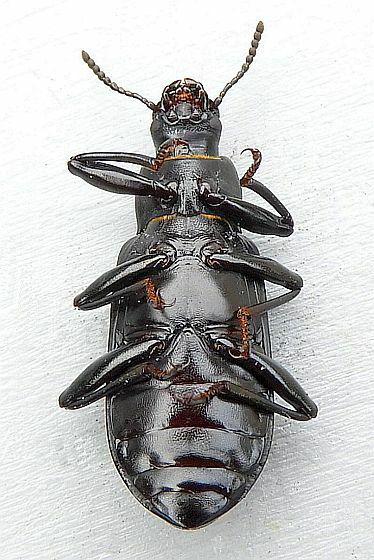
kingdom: Animalia
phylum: Arthropoda
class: Insecta
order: Coleoptera
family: Tenebrionidae
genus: Alobates
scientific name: Alobates pensylvanicus
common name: False mealworm beetle
